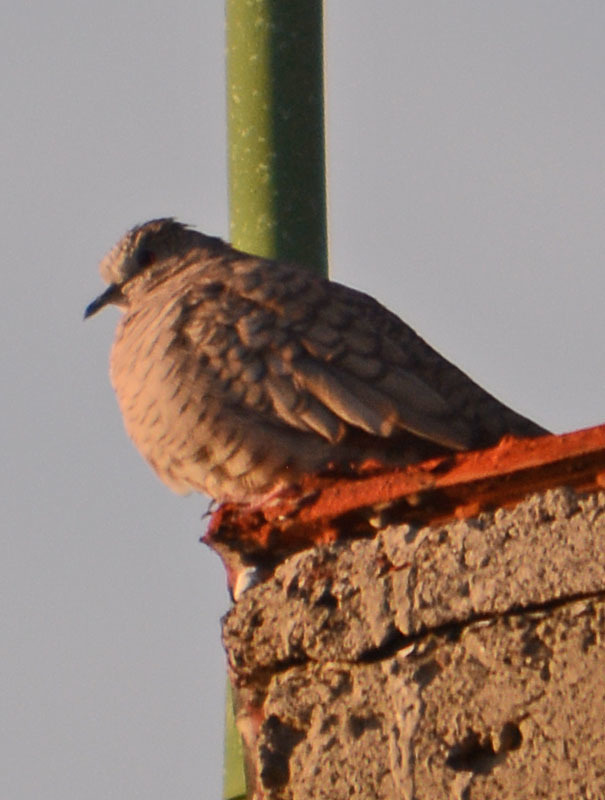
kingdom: Animalia
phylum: Chordata
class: Aves
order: Columbiformes
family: Columbidae
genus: Columbina
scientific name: Columbina inca
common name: Inca dove
